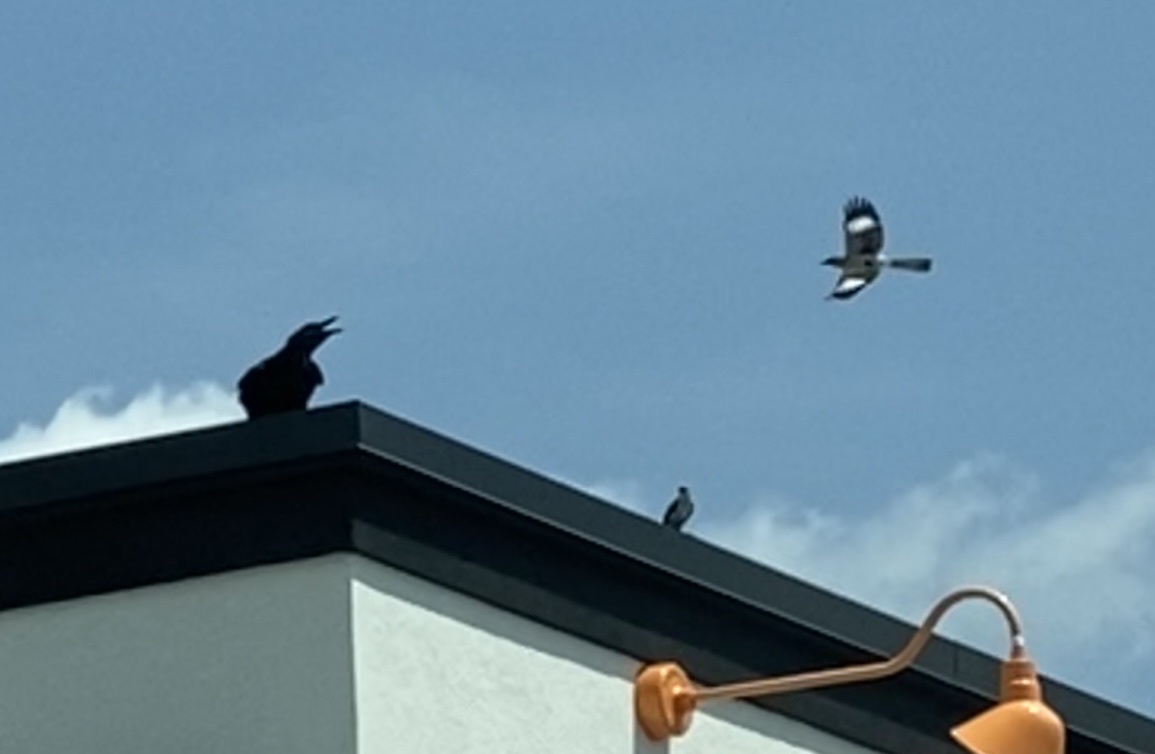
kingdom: Animalia
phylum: Chordata
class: Aves
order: Passeriformes
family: Mimidae
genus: Mimus
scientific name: Mimus polyglottos
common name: Northern mockingbird
